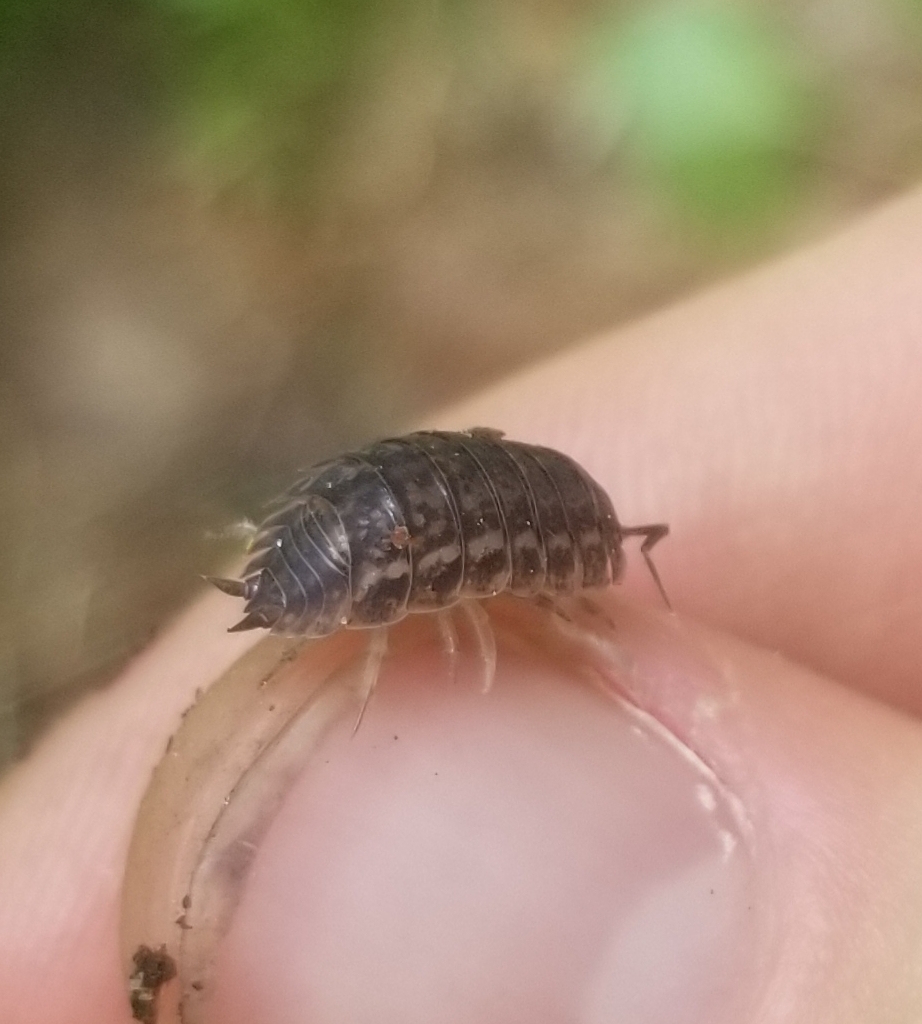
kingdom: Animalia
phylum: Arthropoda
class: Malacostraca
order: Isopoda
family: Trachelipodidae
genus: Trachelipus
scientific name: Trachelipus rathkii
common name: Isopod
